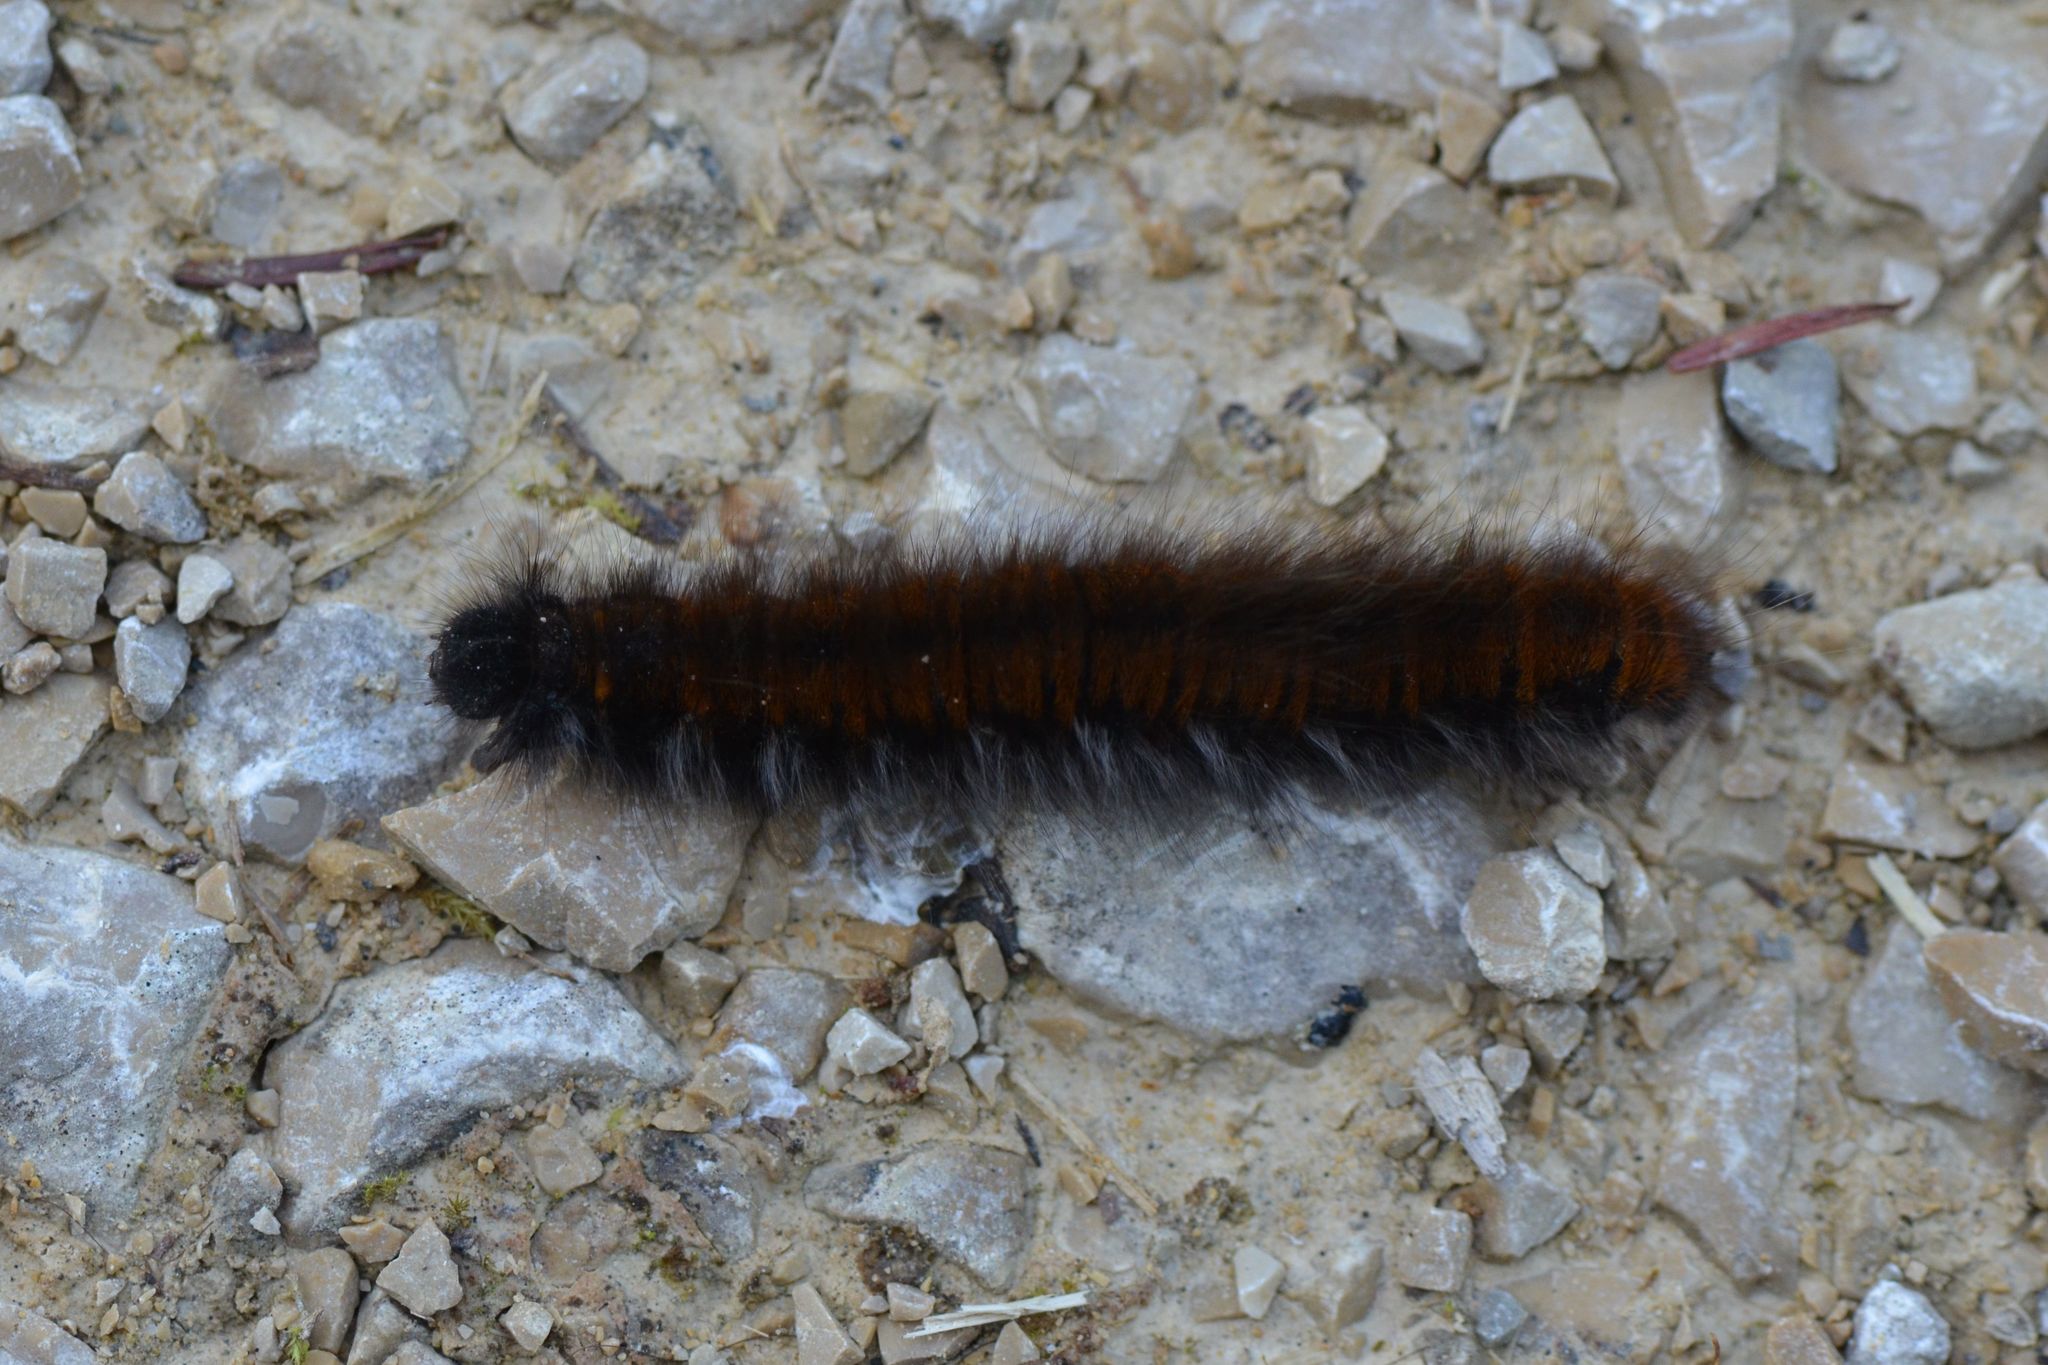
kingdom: Animalia
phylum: Arthropoda
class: Insecta
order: Lepidoptera
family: Lasiocampidae
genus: Macrothylacia
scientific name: Macrothylacia rubi
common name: Fox moth
